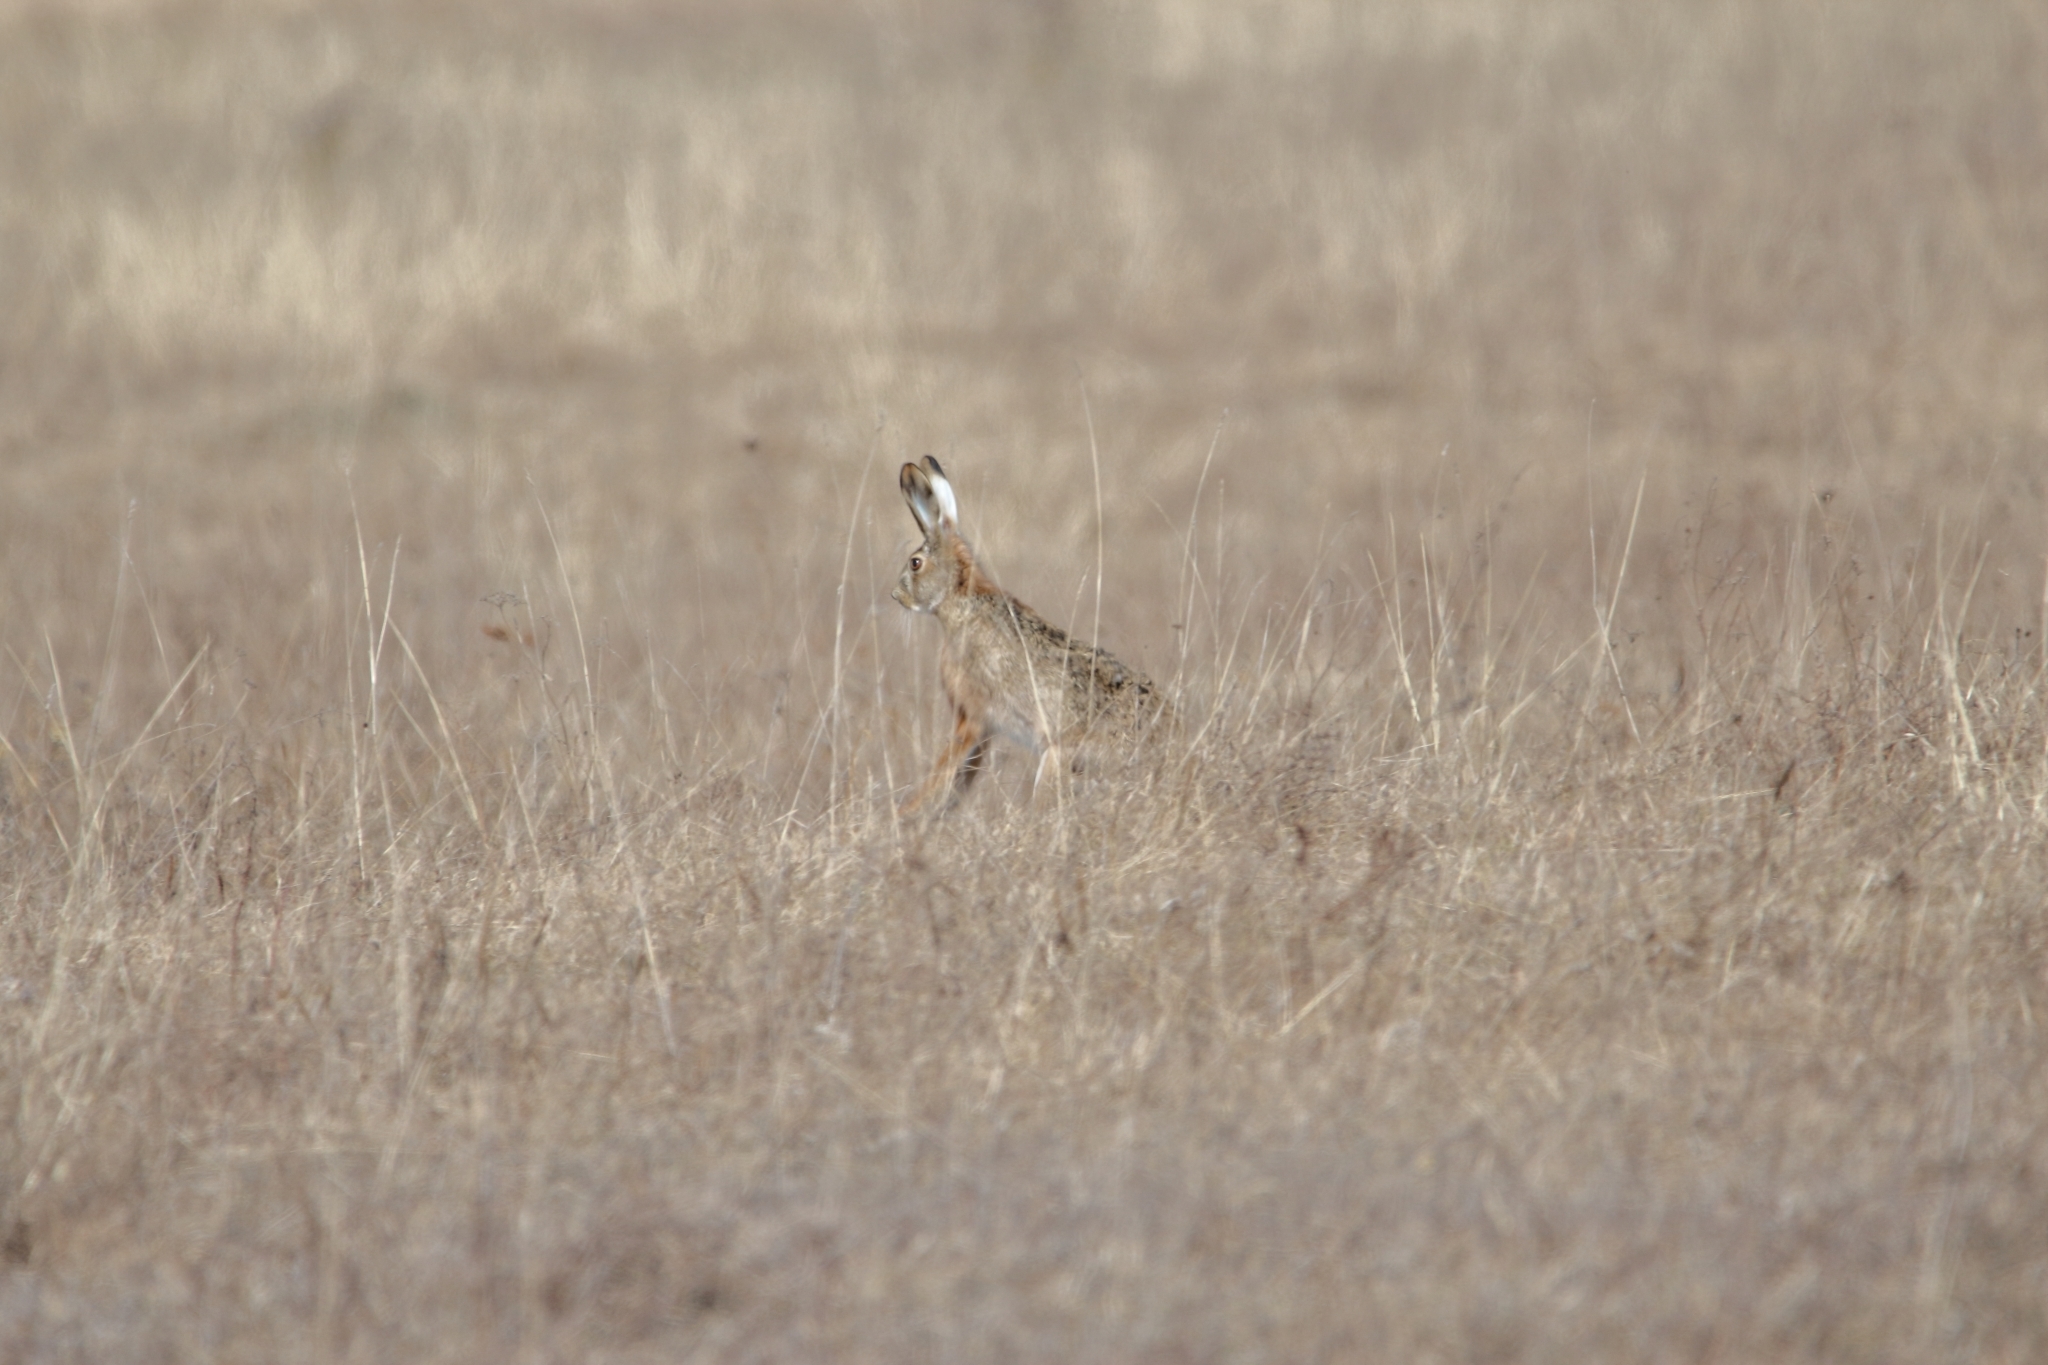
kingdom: Animalia
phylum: Chordata
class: Mammalia
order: Lagomorpha
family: Leporidae
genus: Lepus
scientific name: Lepus europaeus
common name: European hare
